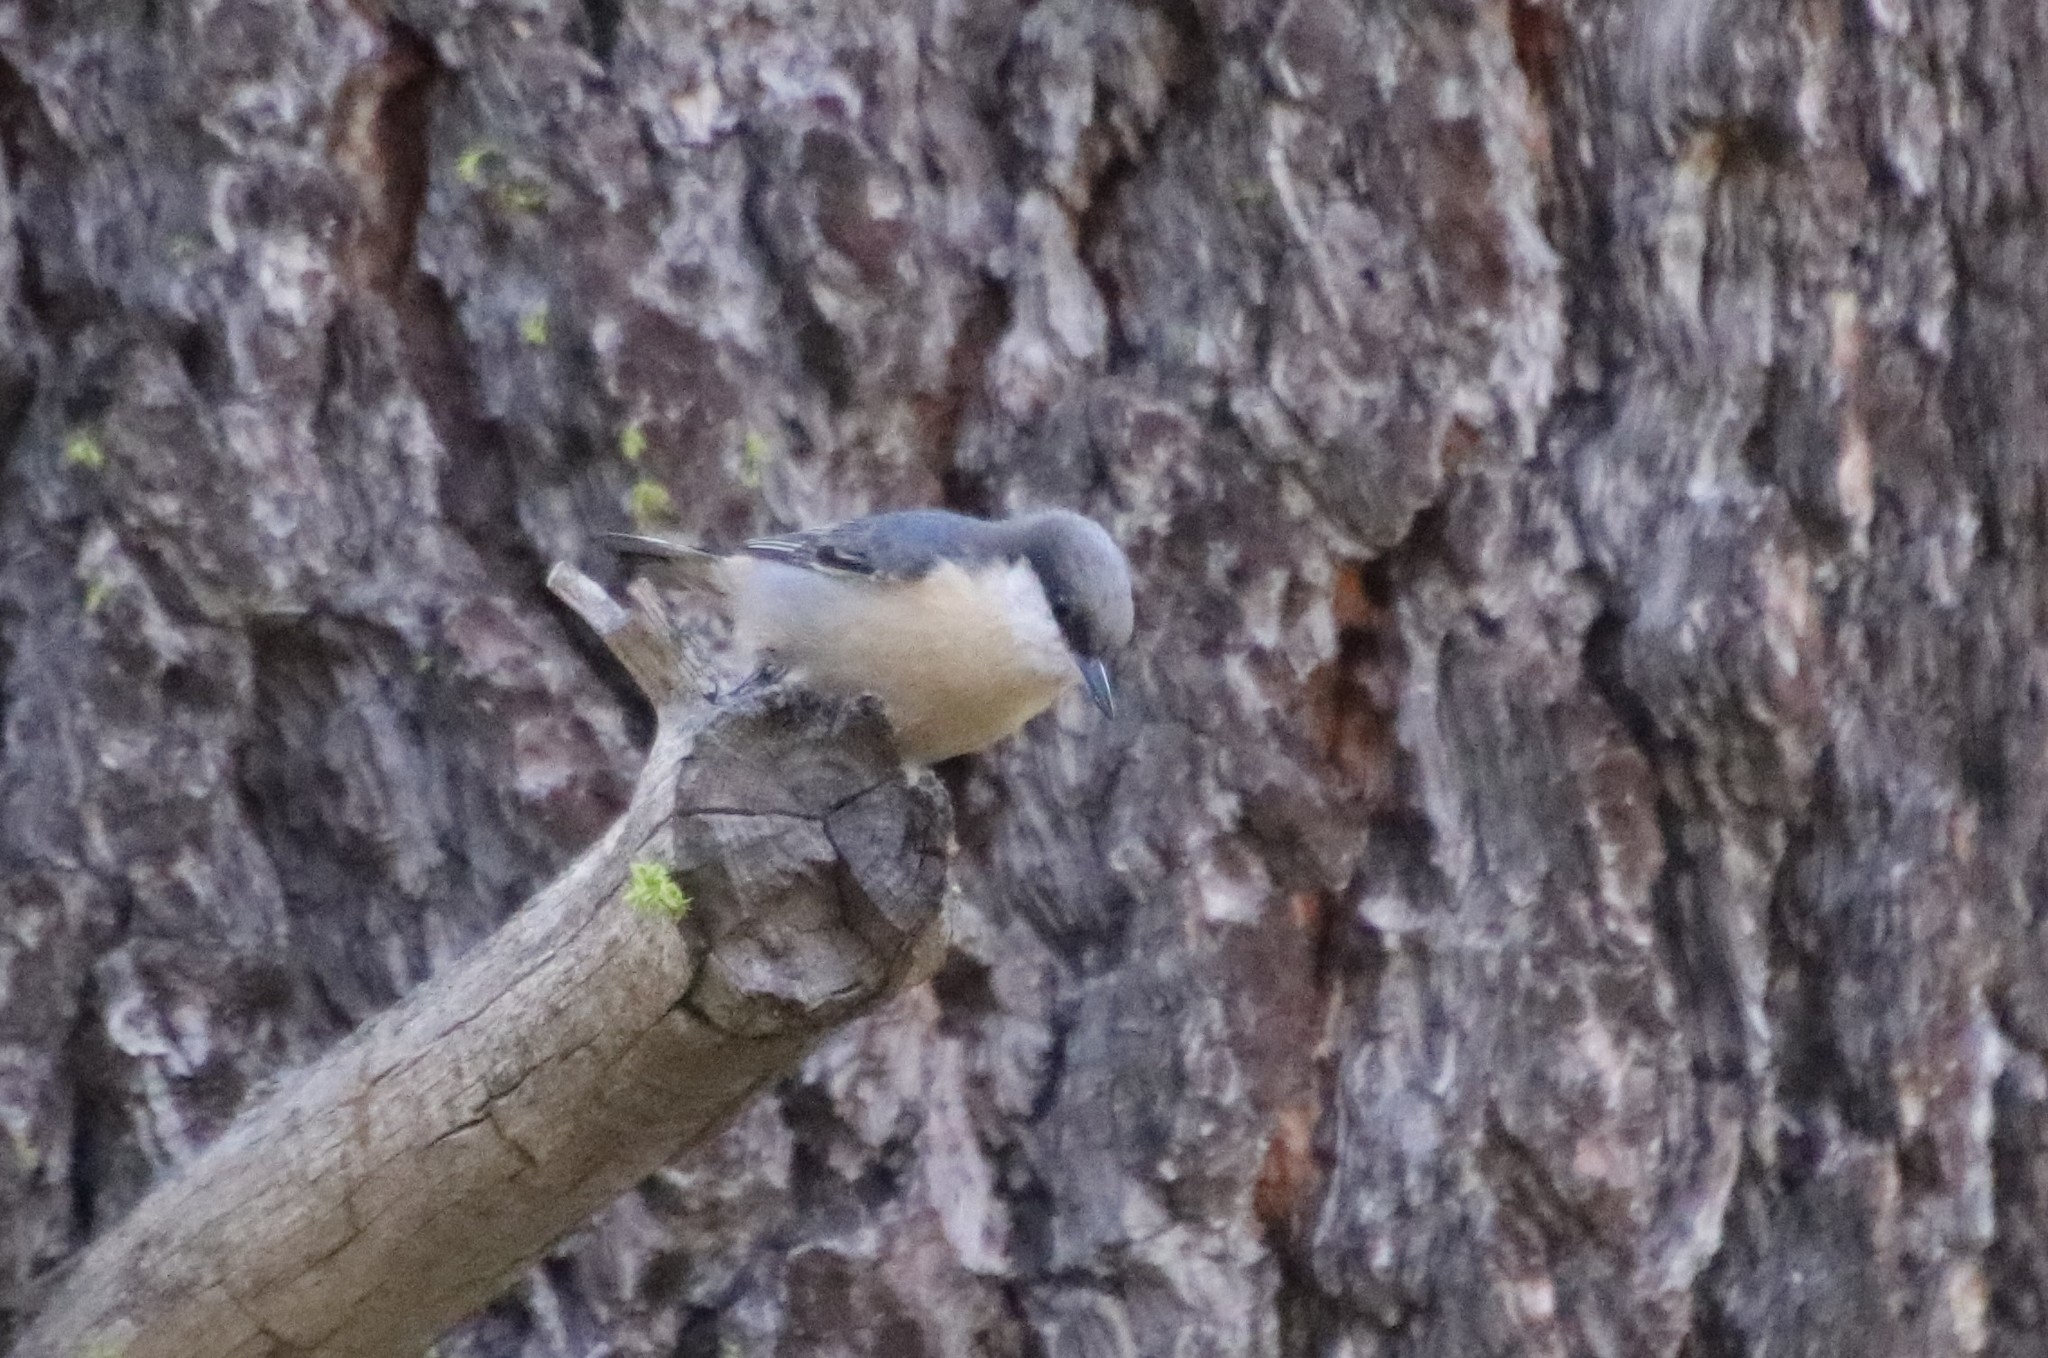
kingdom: Animalia
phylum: Chordata
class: Aves
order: Passeriformes
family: Sittidae
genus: Sitta
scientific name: Sitta pygmaea
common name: Pygmy nuthatch
